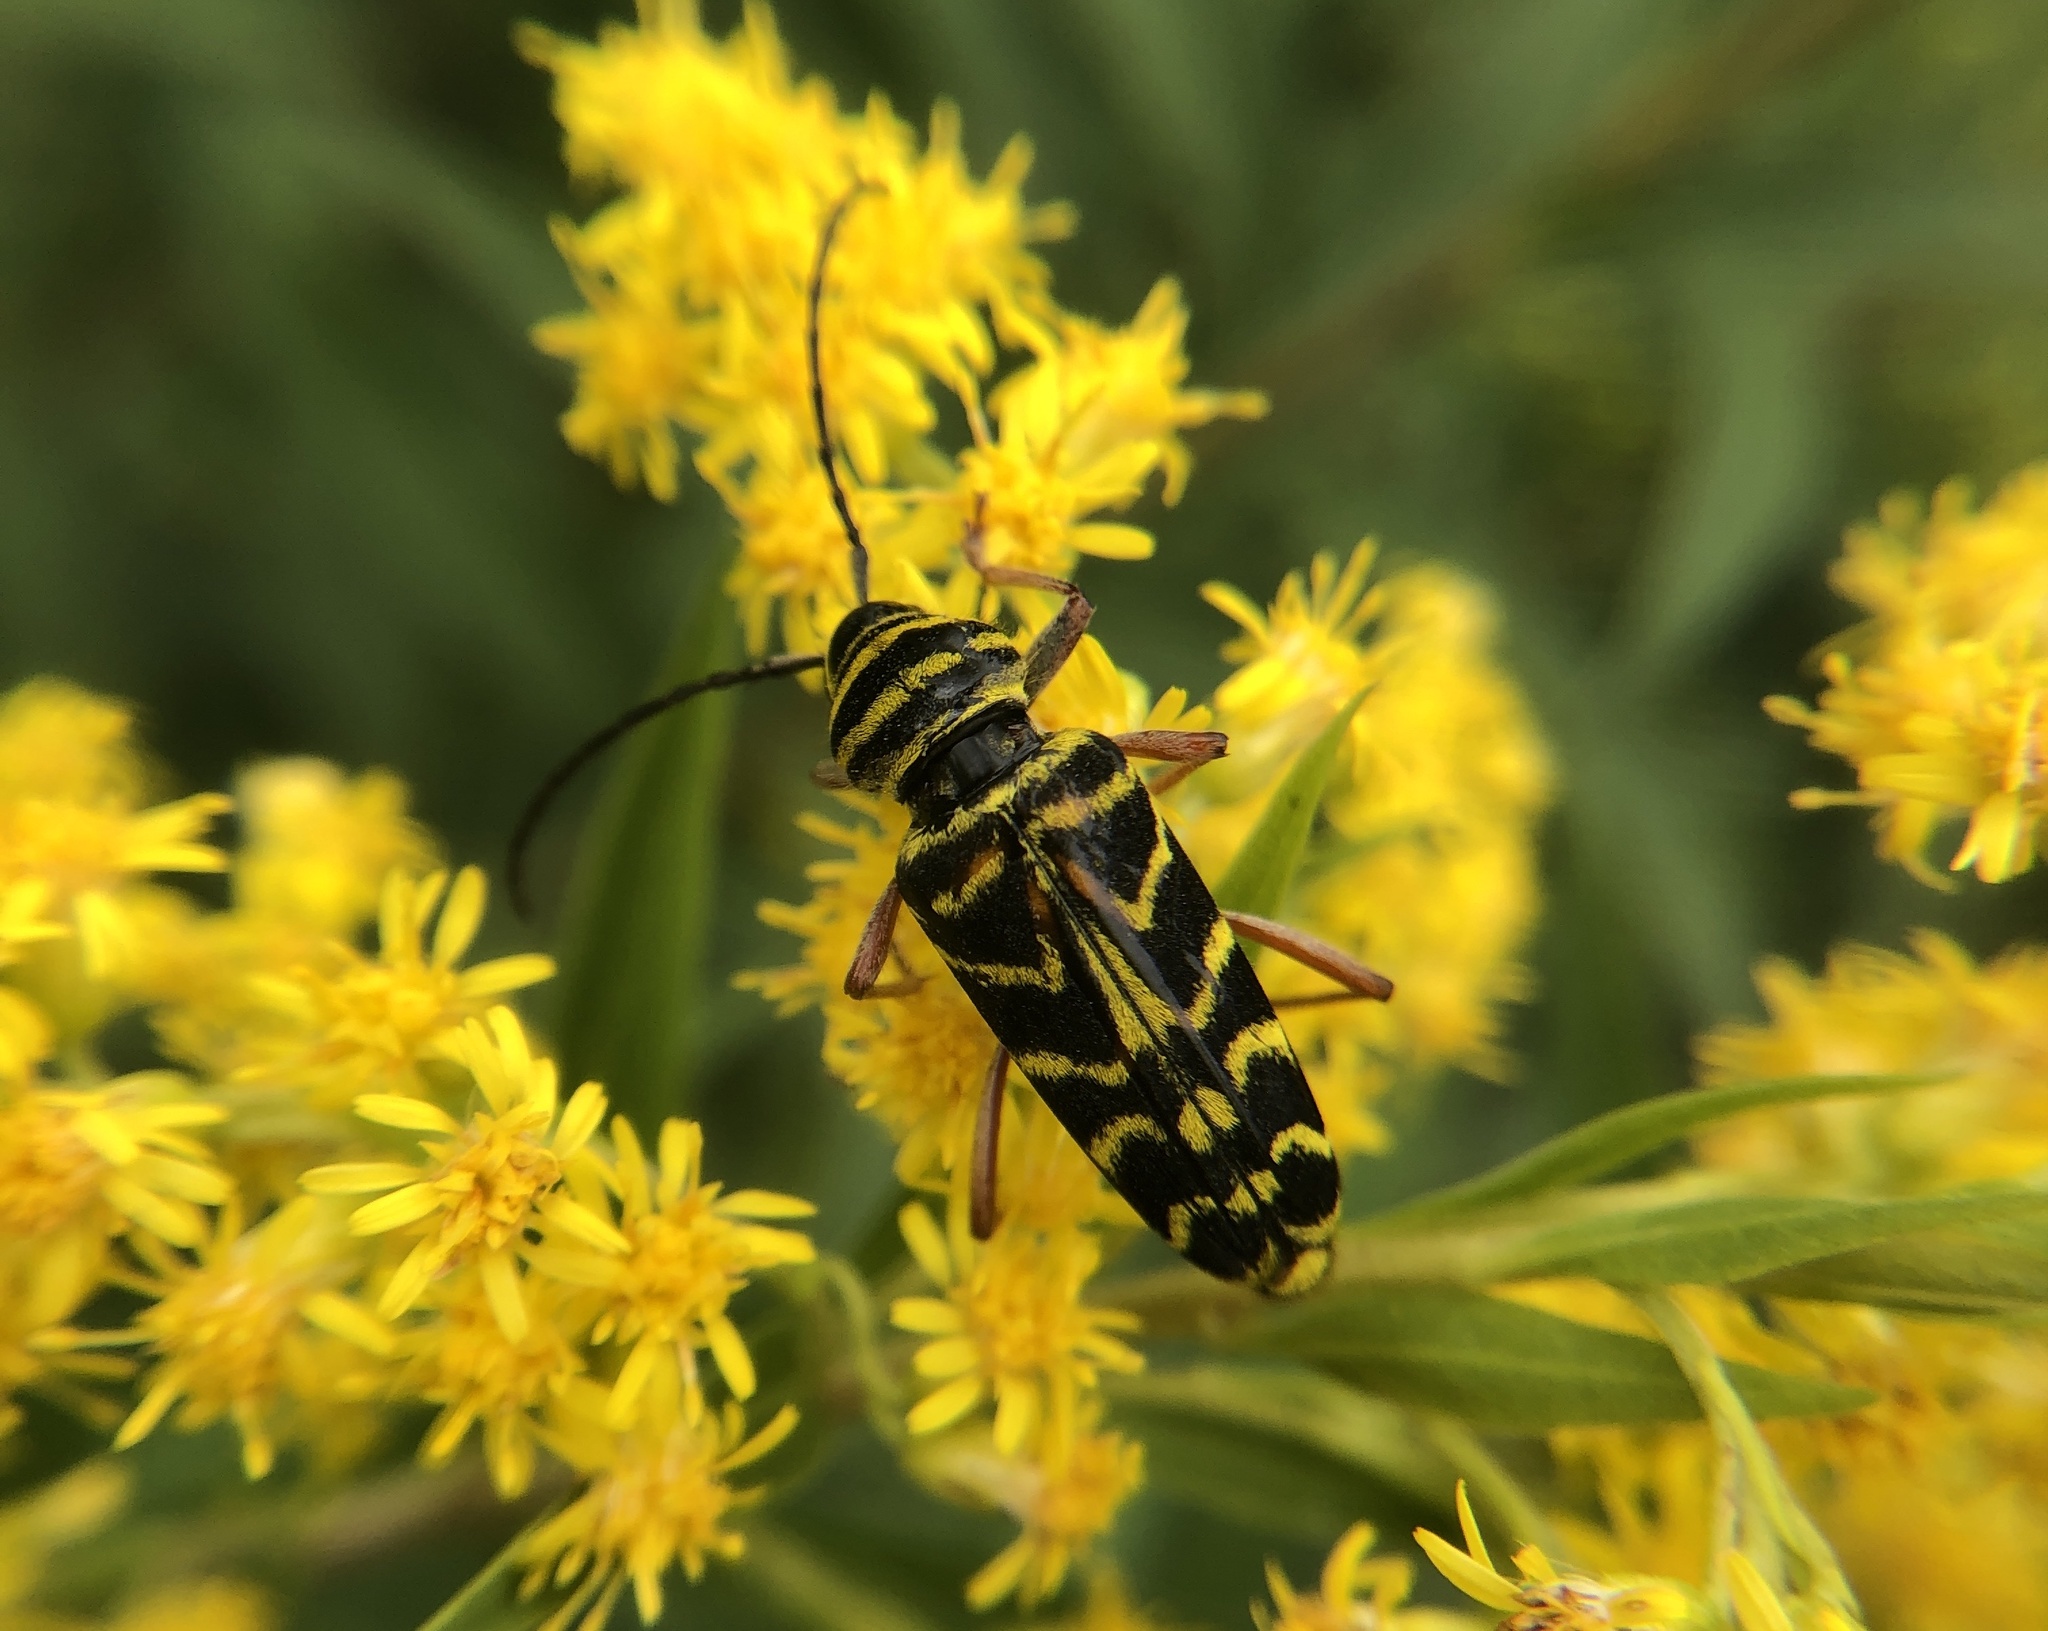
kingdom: Animalia
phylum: Arthropoda
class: Insecta
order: Coleoptera
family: Cerambycidae
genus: Megacyllene
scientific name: Megacyllene robiniae
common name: Locust borer
